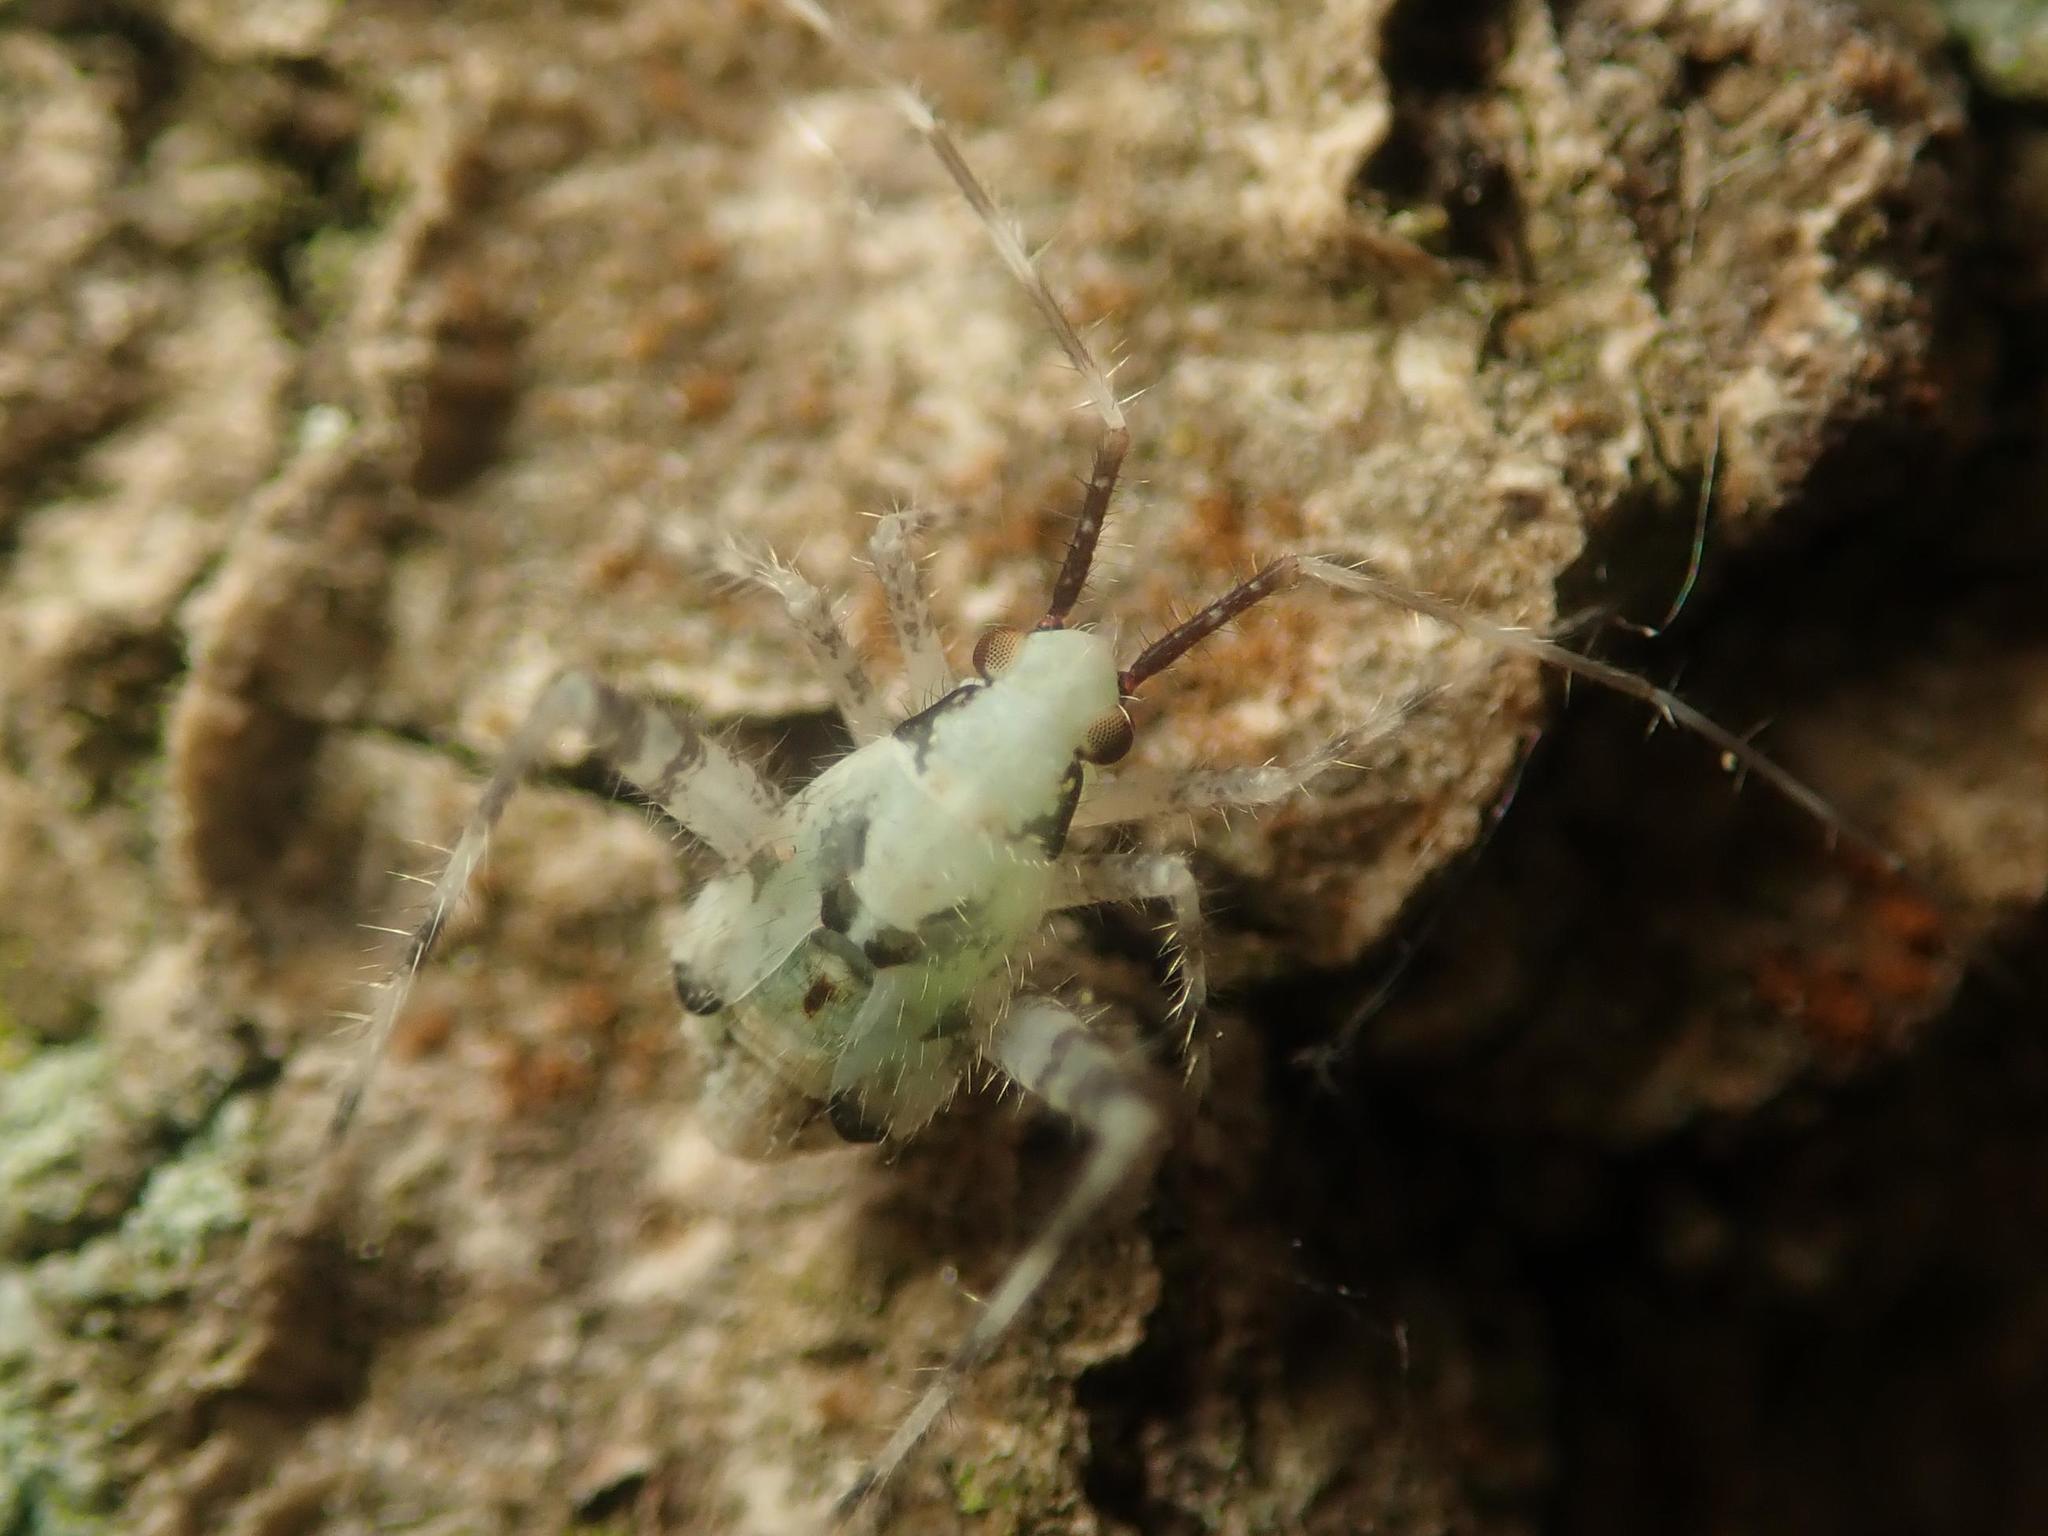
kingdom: Animalia
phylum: Arthropoda
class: Insecta
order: Hemiptera
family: Miridae
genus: Phytocoris
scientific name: Phytocoris tiliae
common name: Plant bug
